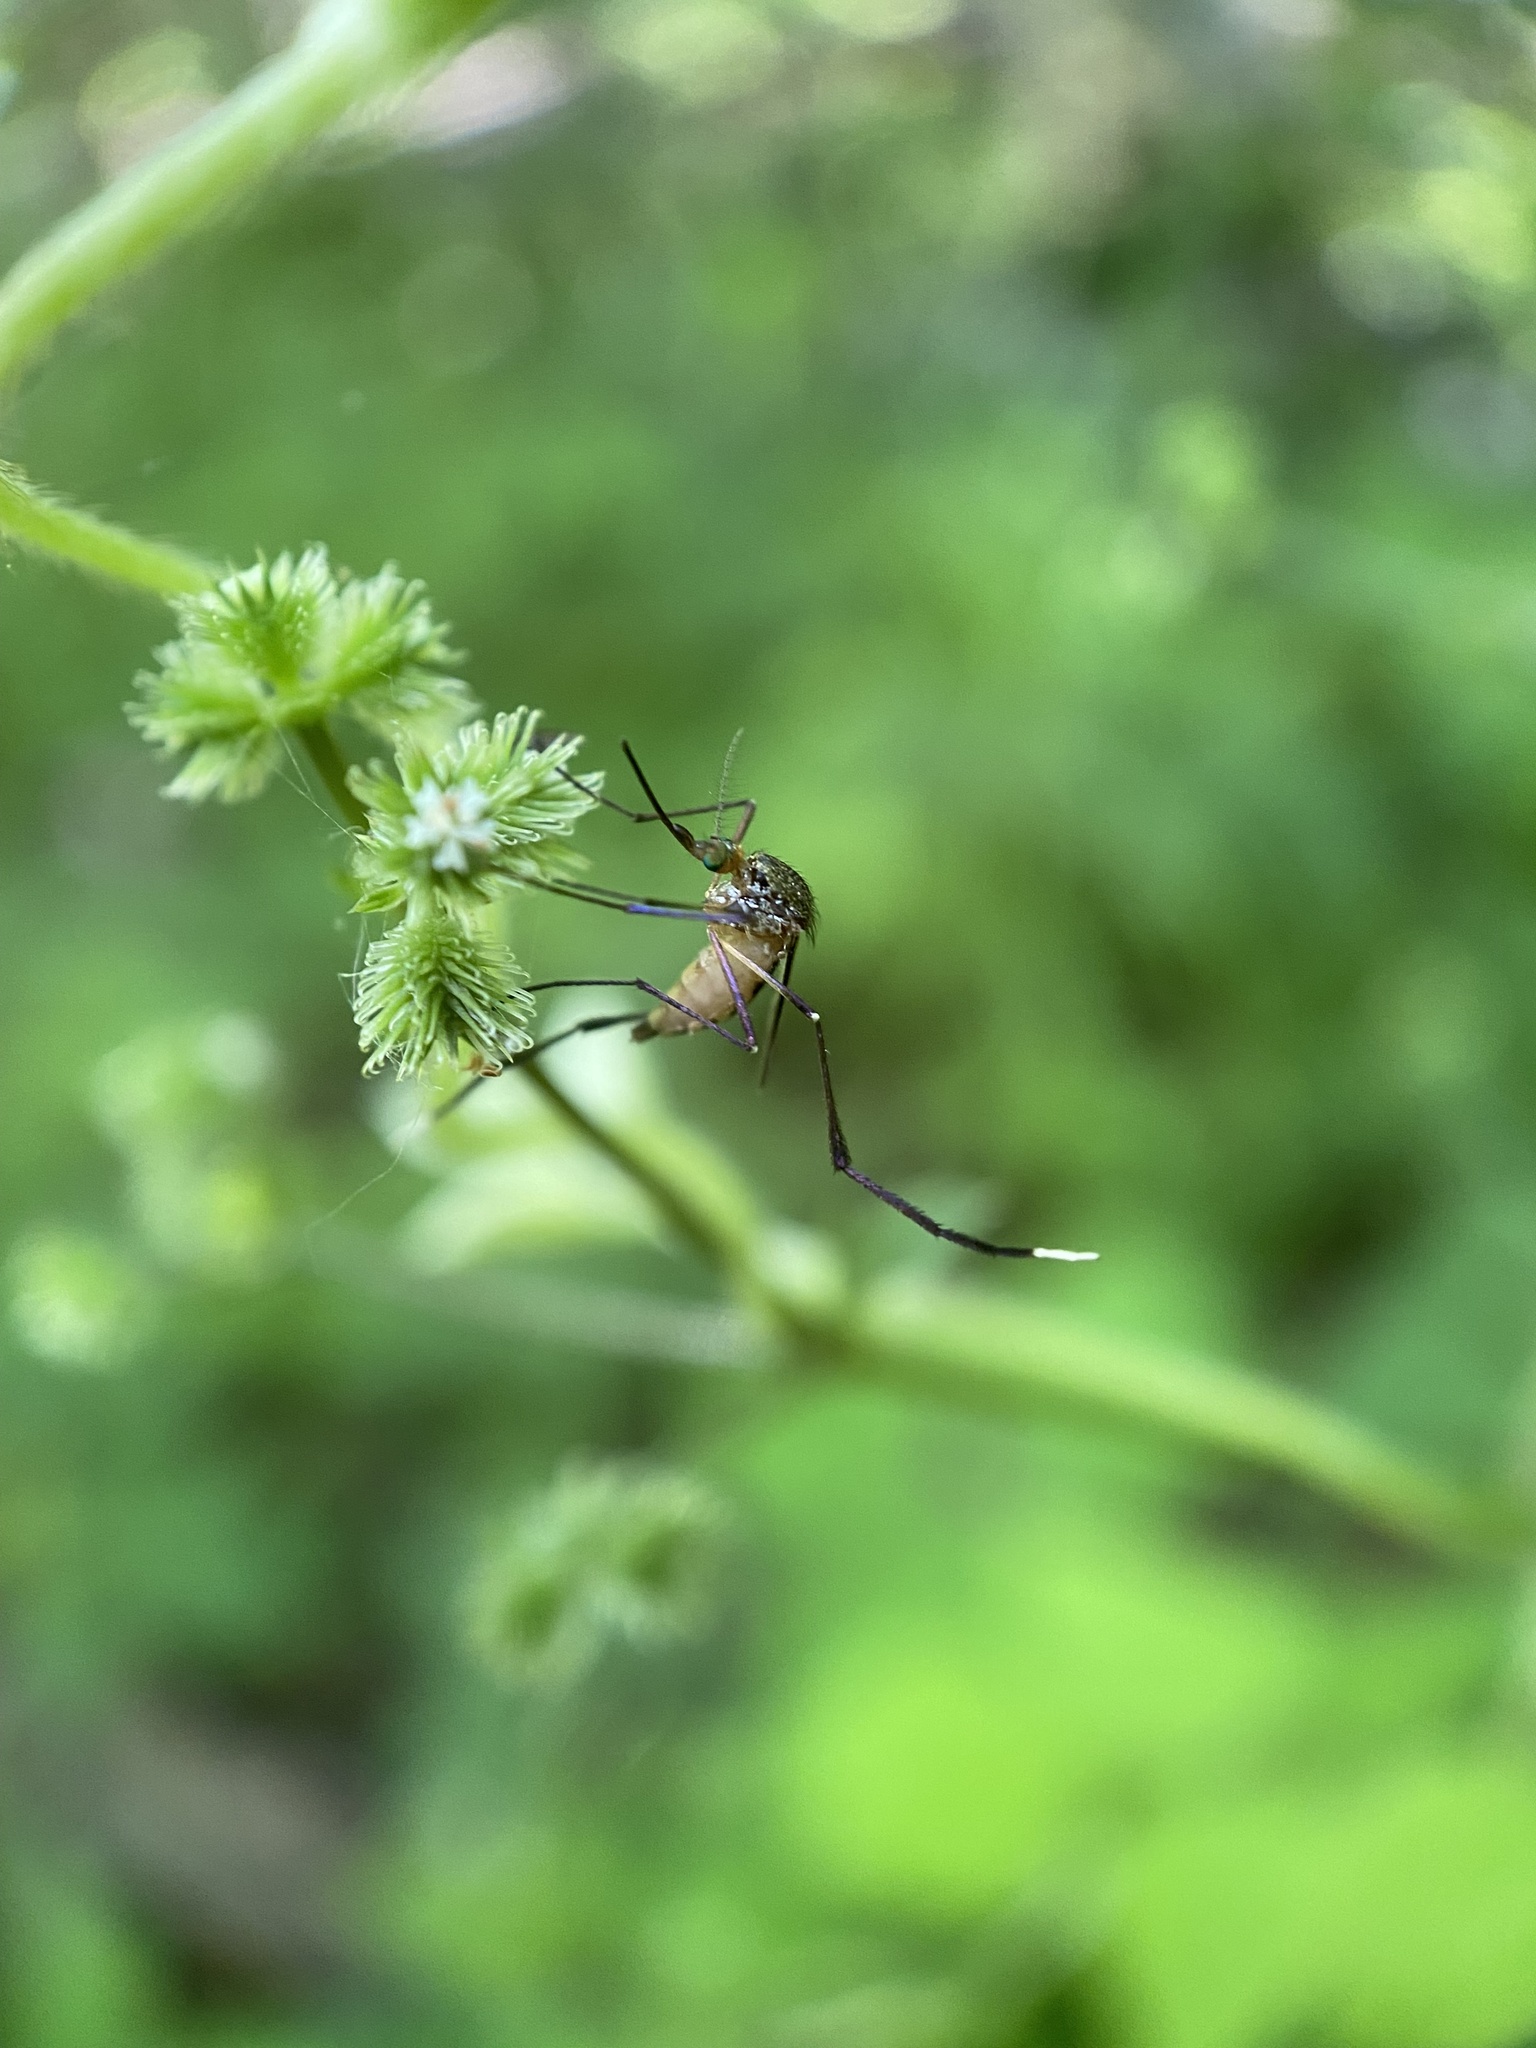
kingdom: Animalia
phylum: Arthropoda
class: Insecta
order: Diptera
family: Culicidae
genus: Psorophora
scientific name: Psorophora ferox
